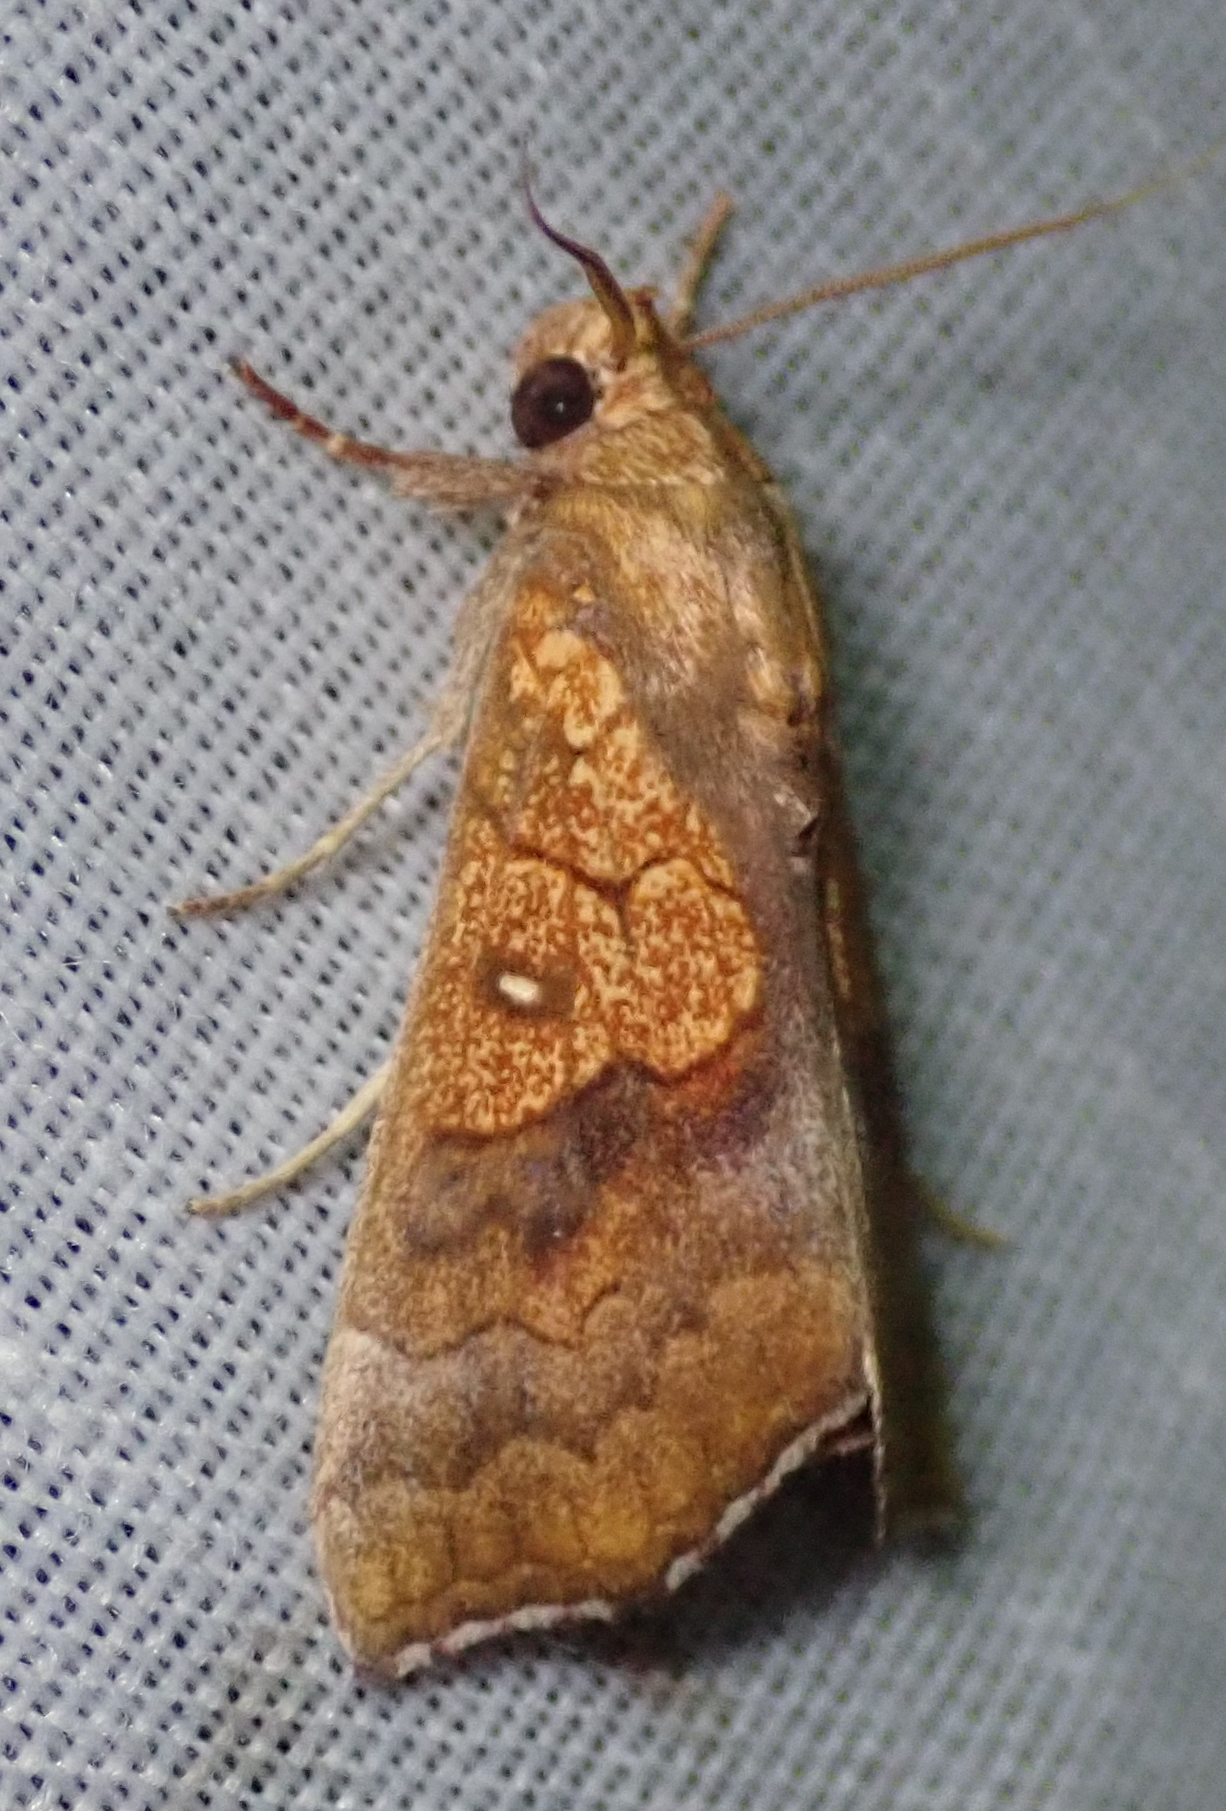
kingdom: Animalia
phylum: Arthropoda
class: Insecta
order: Lepidoptera
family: Erebidae
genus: Anomis
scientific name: Anomis flava
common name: Moth
